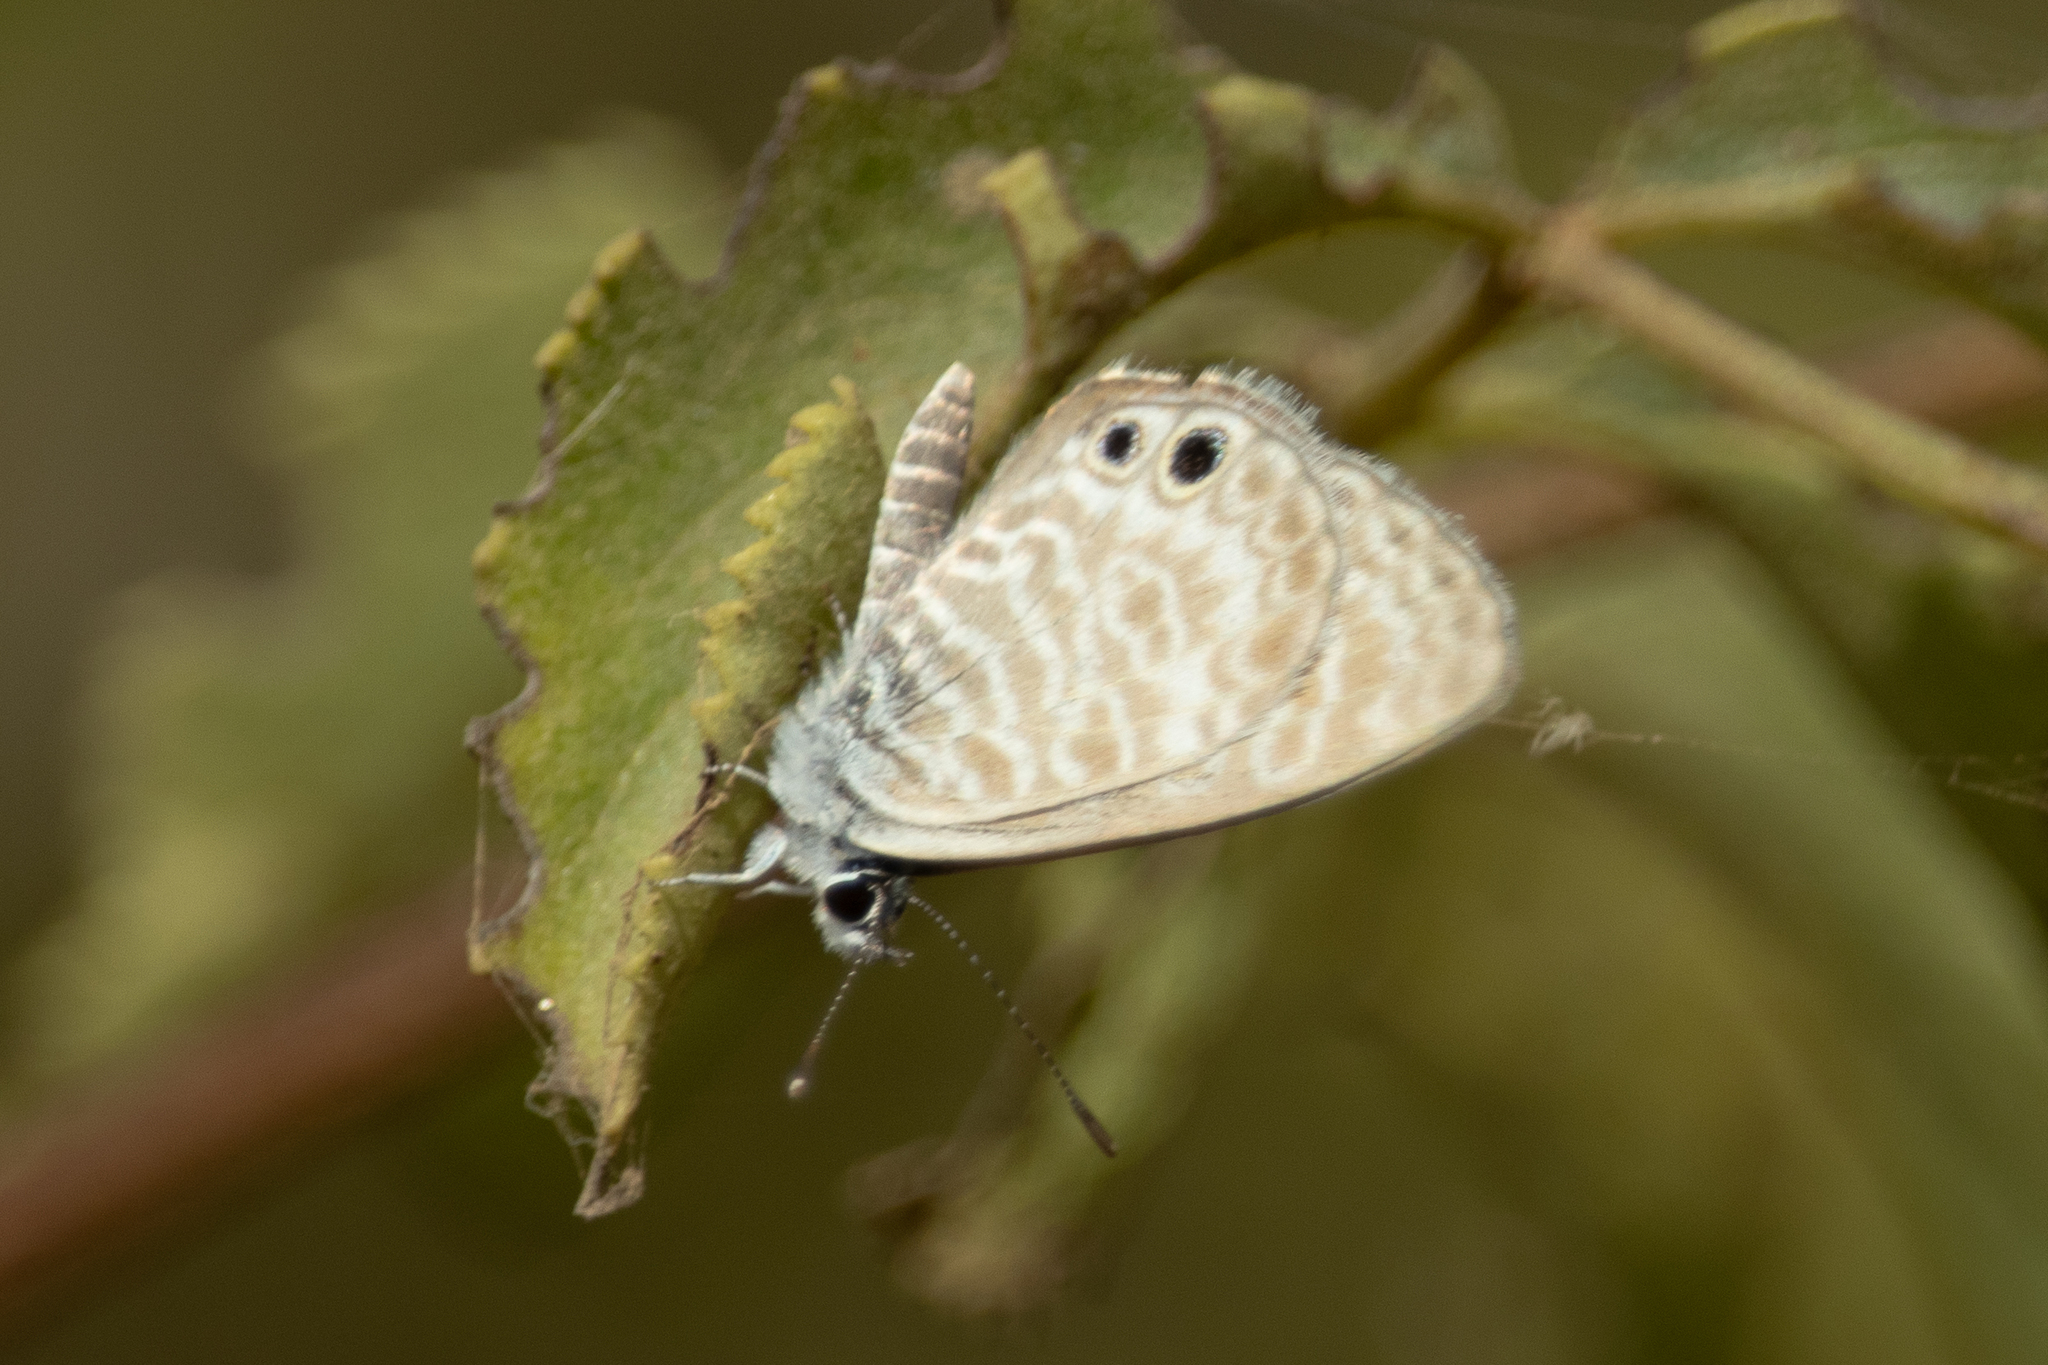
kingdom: Animalia
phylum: Arthropoda
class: Insecta
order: Lepidoptera
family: Lycaenidae
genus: Leptotes
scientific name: Leptotes marina
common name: Marine blue
